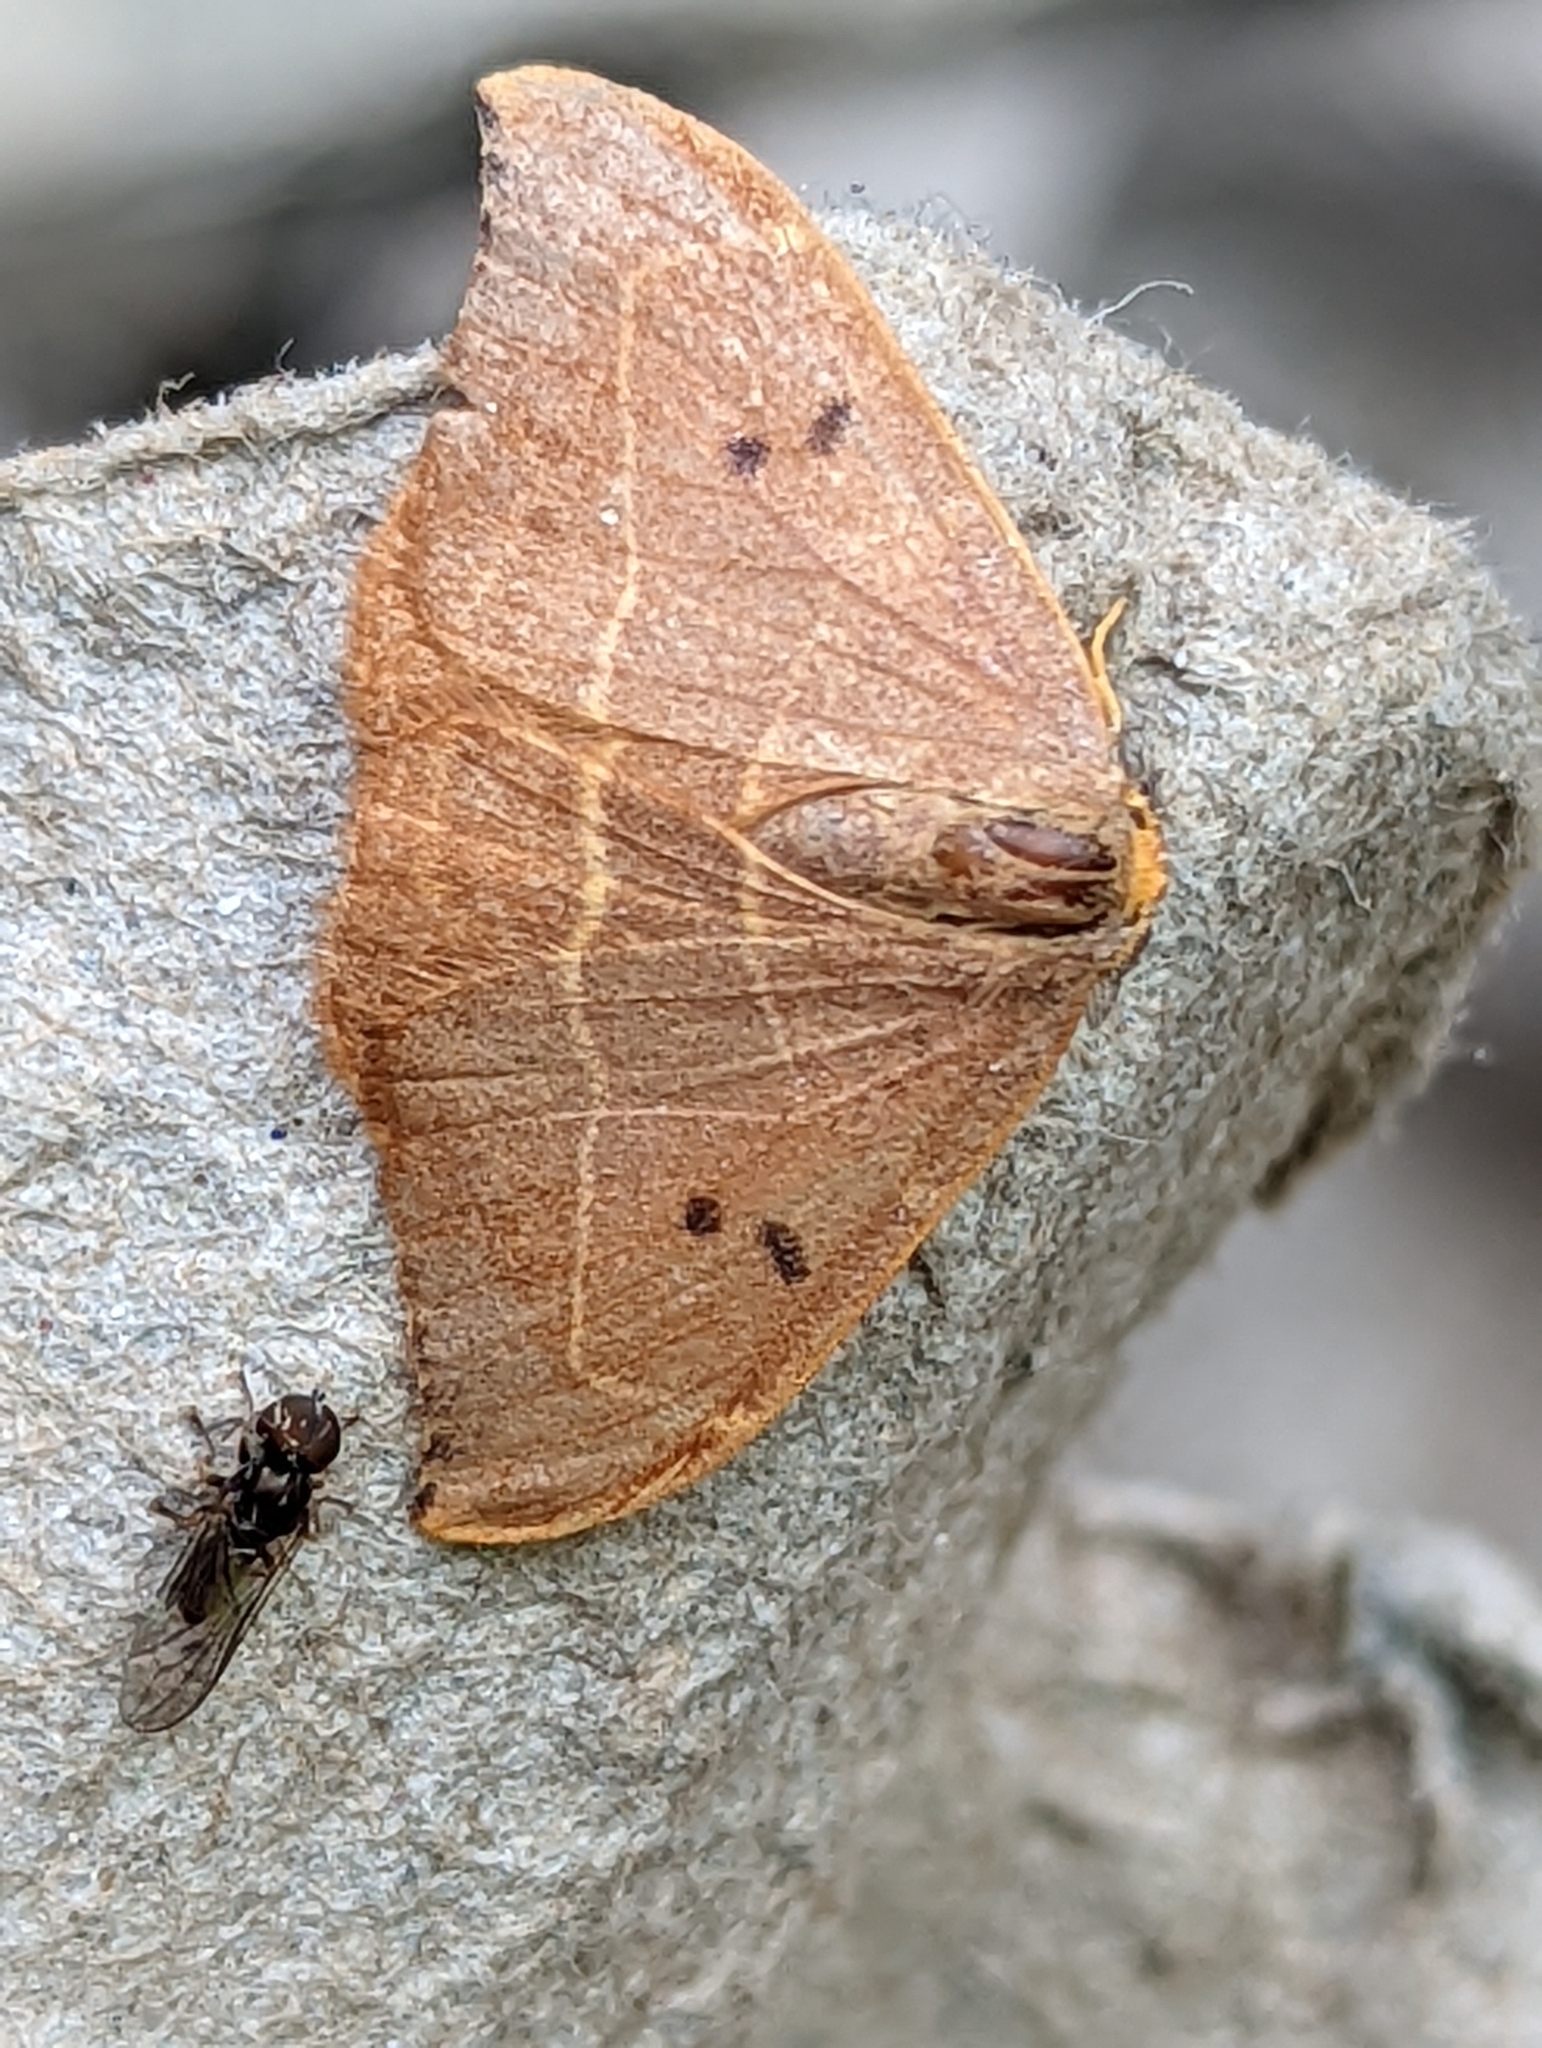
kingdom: Animalia
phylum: Arthropoda
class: Insecta
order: Lepidoptera
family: Drepanidae
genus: Watsonalla
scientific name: Watsonalla binaria
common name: Oak hook-tip
